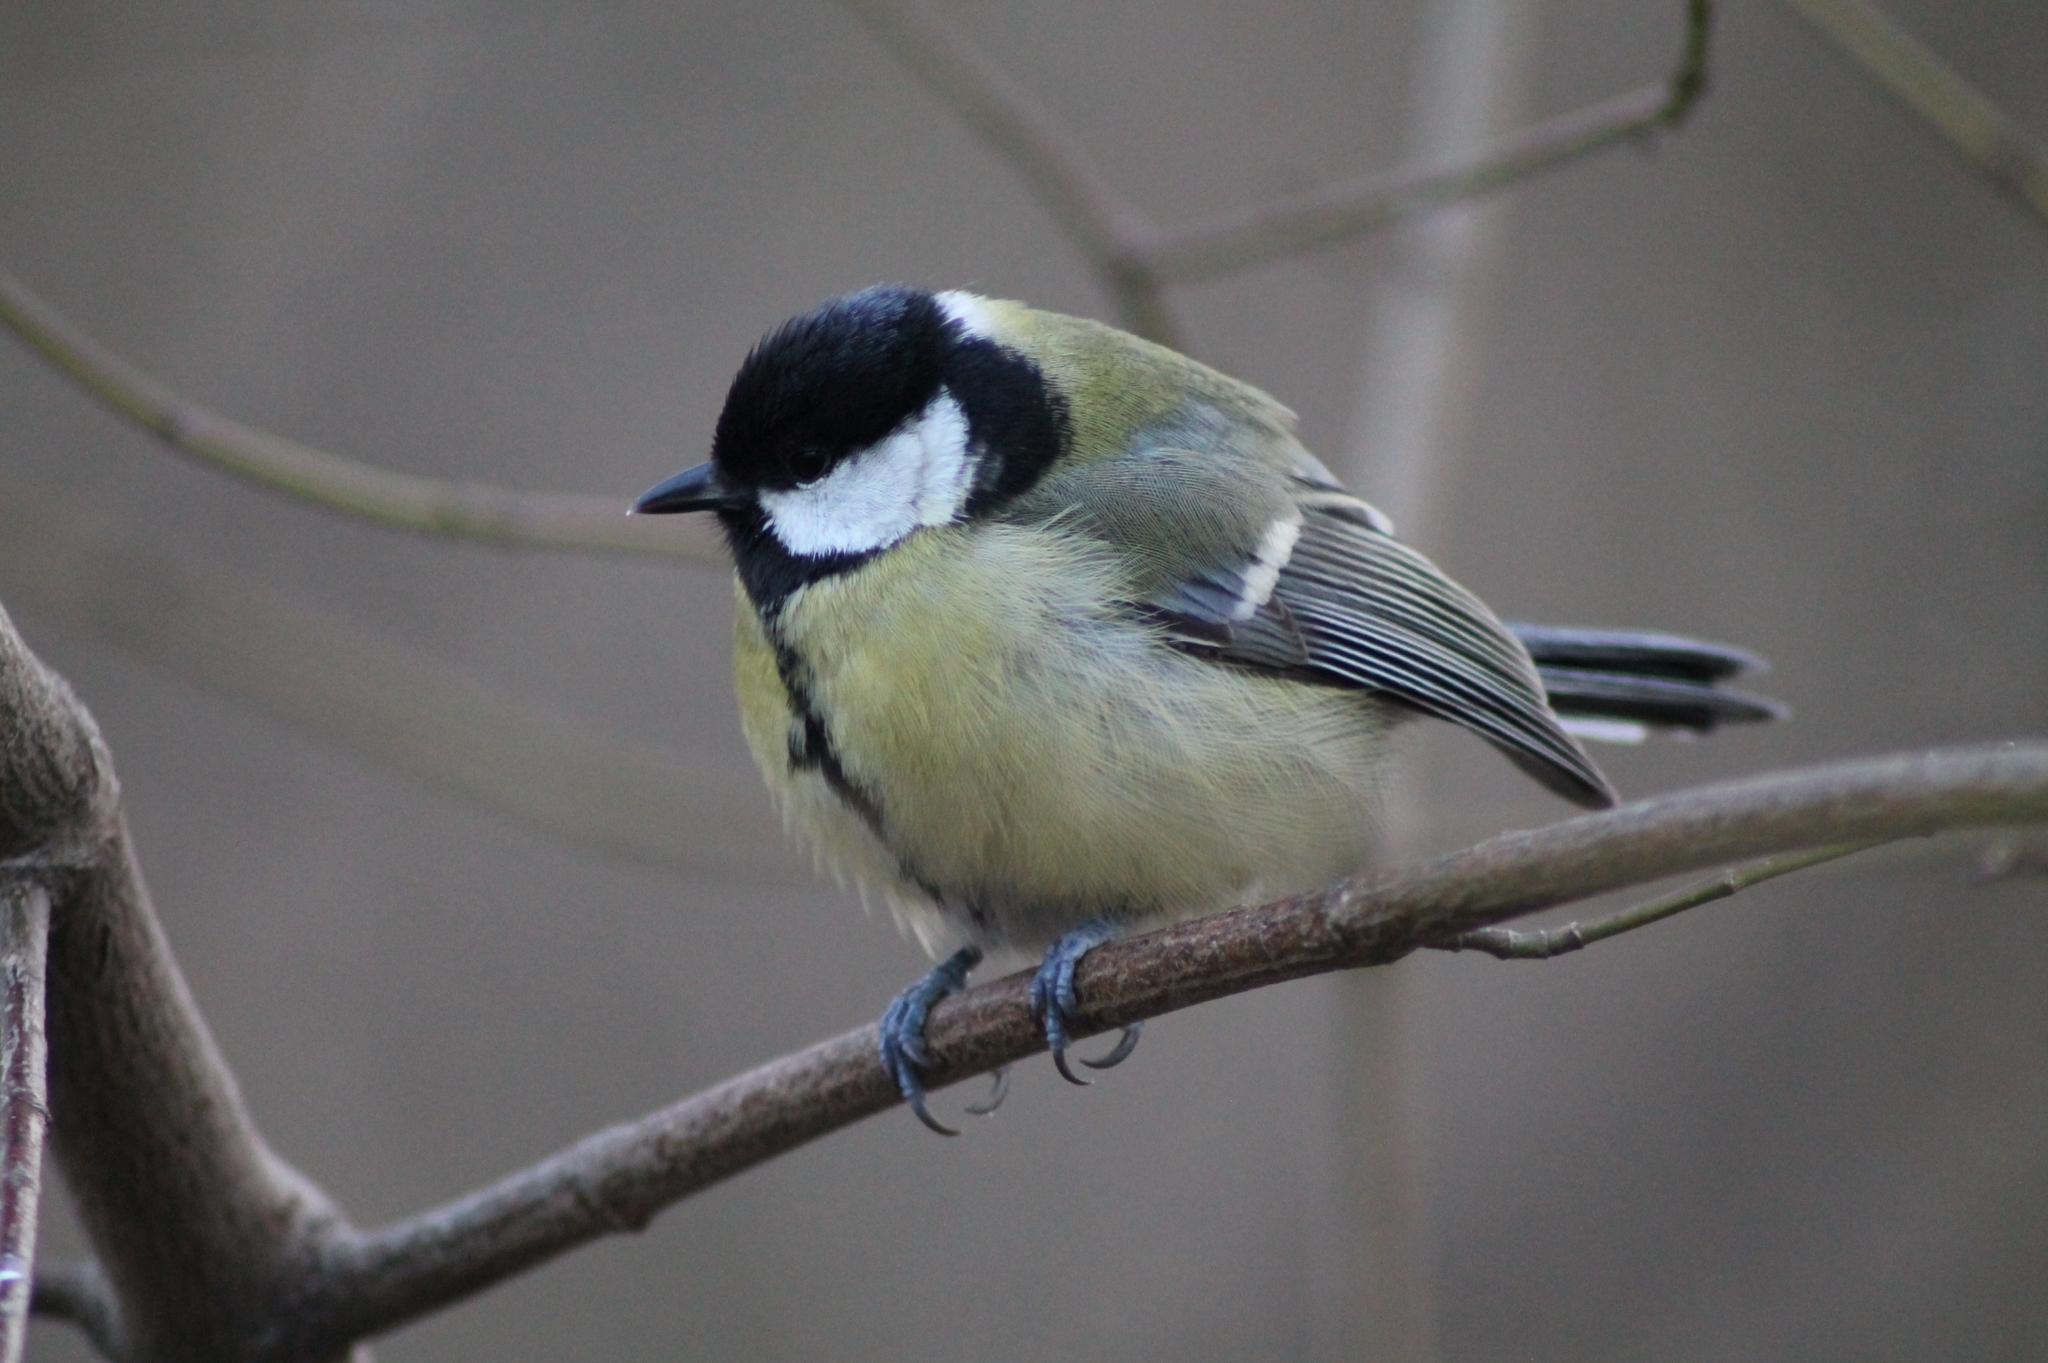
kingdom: Animalia
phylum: Chordata
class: Aves
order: Passeriformes
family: Paridae
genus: Parus
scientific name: Parus major
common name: Great tit
